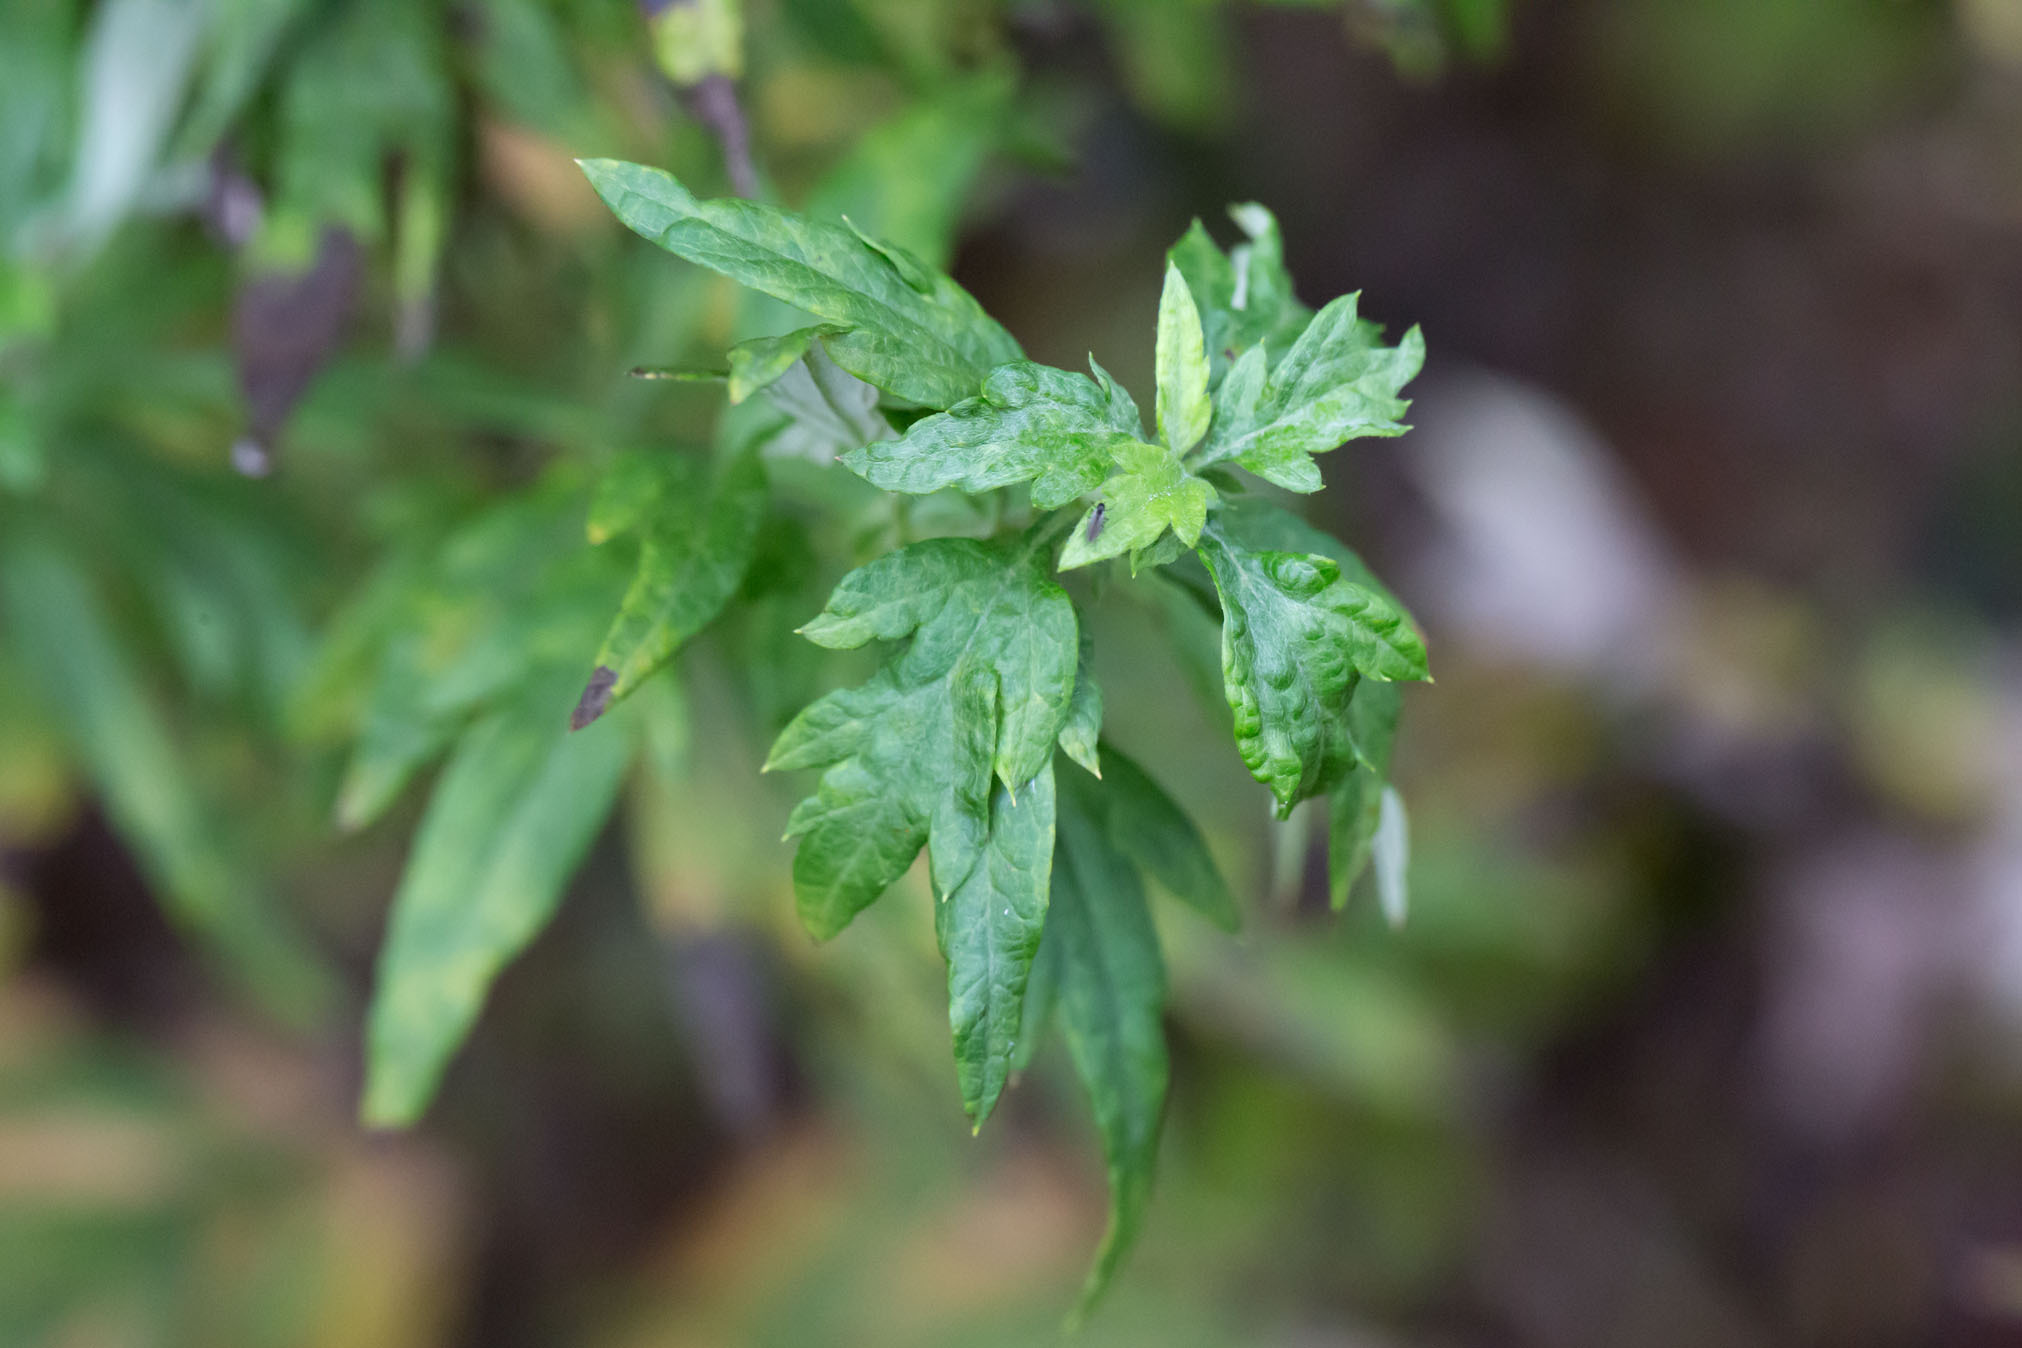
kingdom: Plantae
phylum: Tracheophyta
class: Magnoliopsida
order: Asterales
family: Asteraceae
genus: Artemisia
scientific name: Artemisia vulgaris
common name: Mugwort
